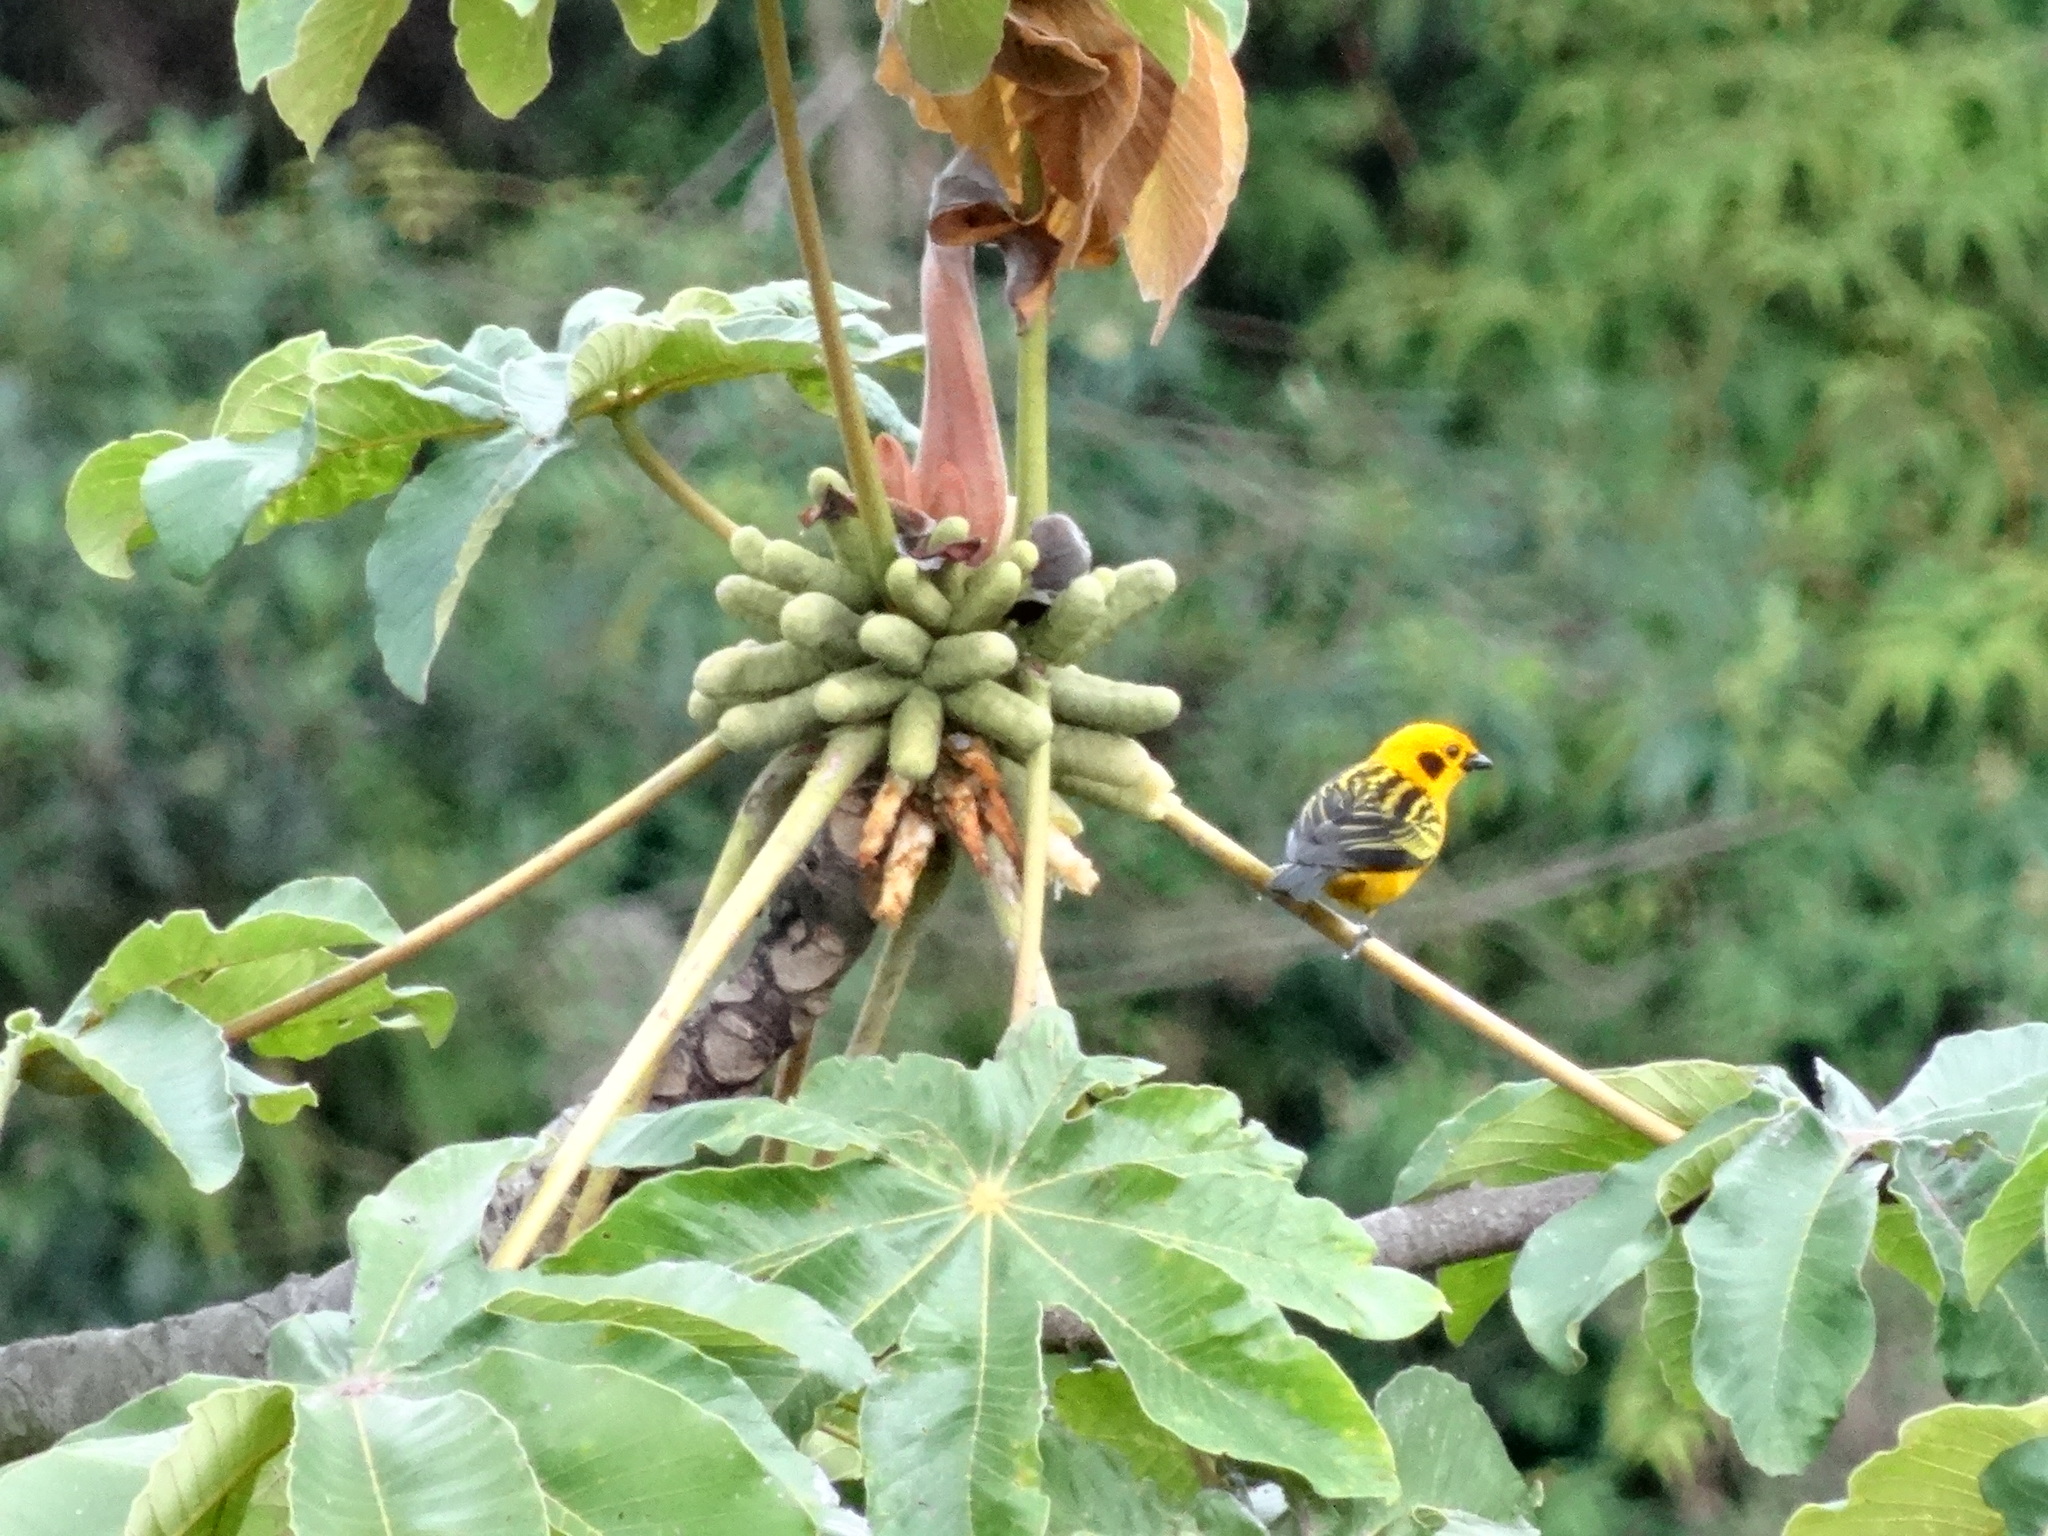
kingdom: Animalia
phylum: Chordata
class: Aves
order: Passeriformes
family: Thraupidae
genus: Tangara
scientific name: Tangara arthus
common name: Golden tanager
